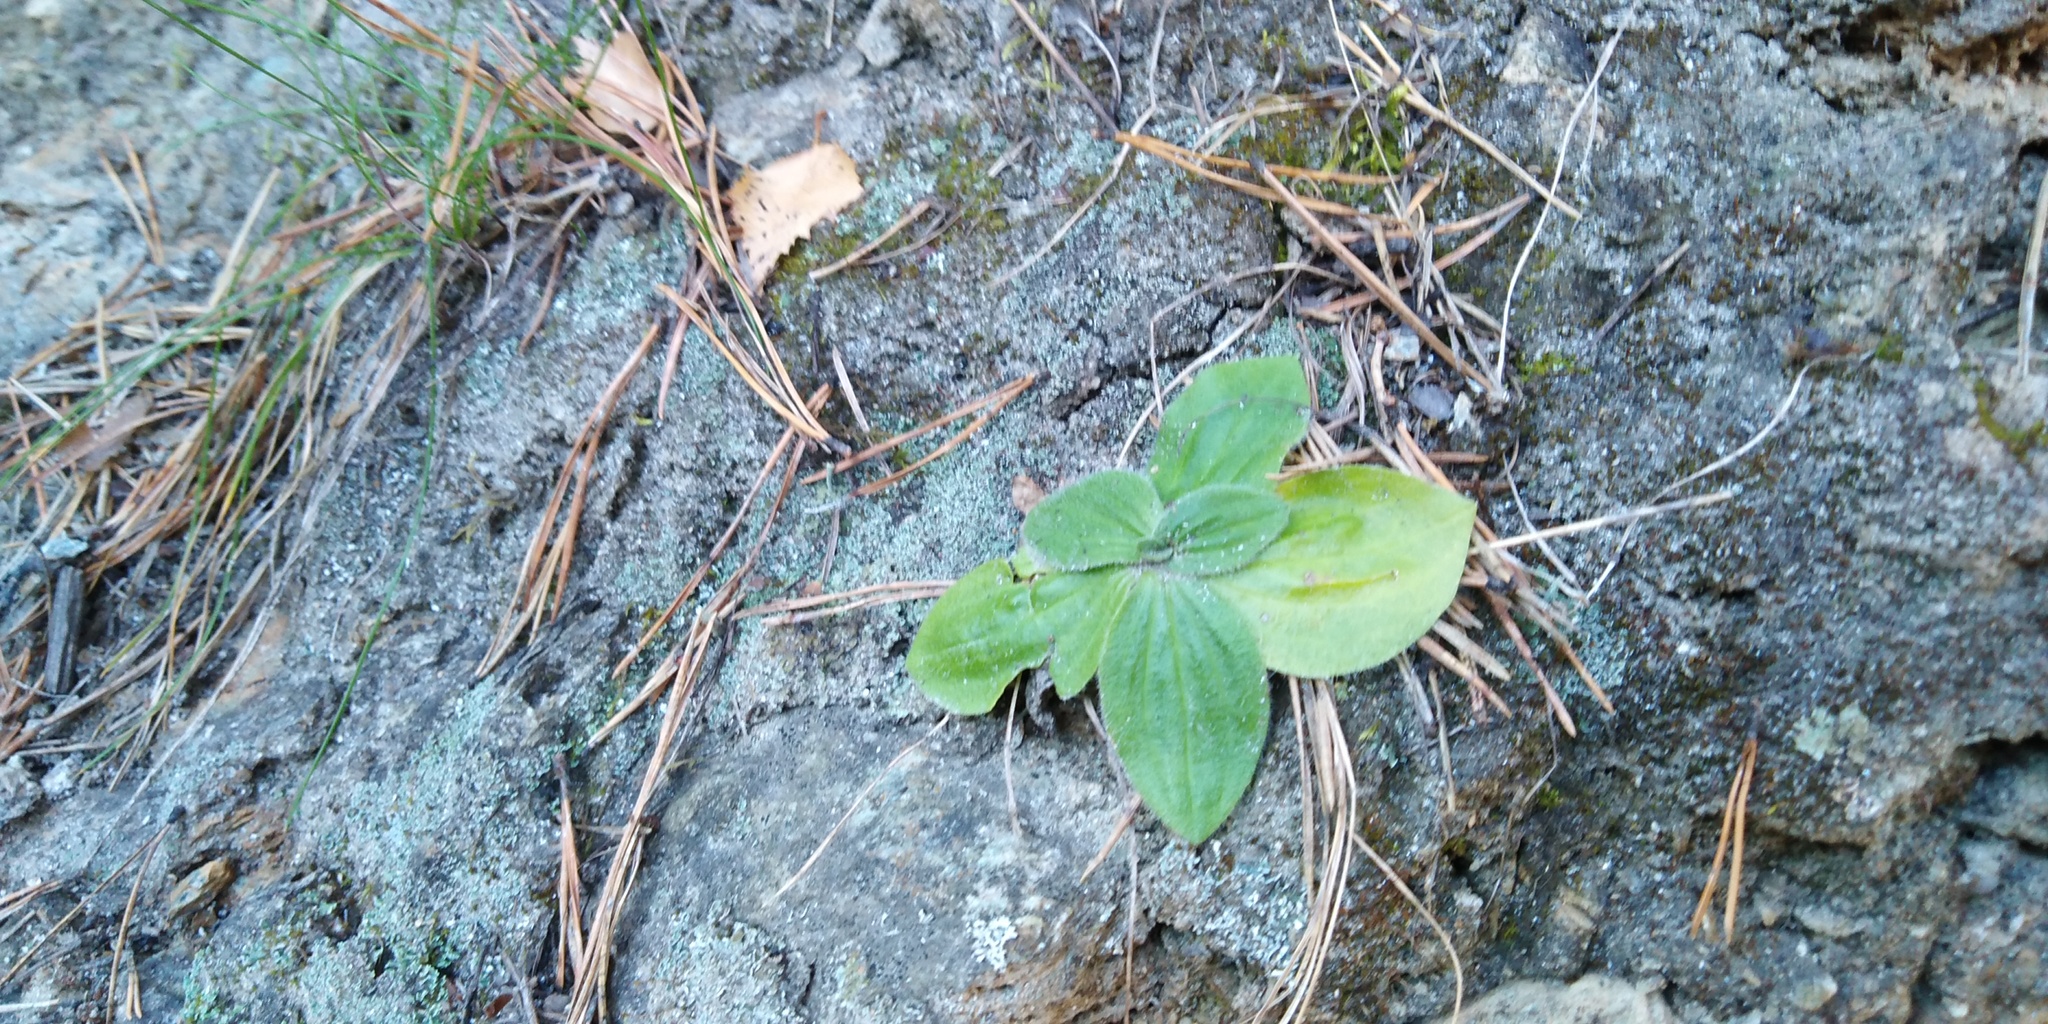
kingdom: Plantae
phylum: Tracheophyta
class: Magnoliopsida
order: Lamiales
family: Plantaginaceae
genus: Plantago
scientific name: Plantago media
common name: Hoary plantain
